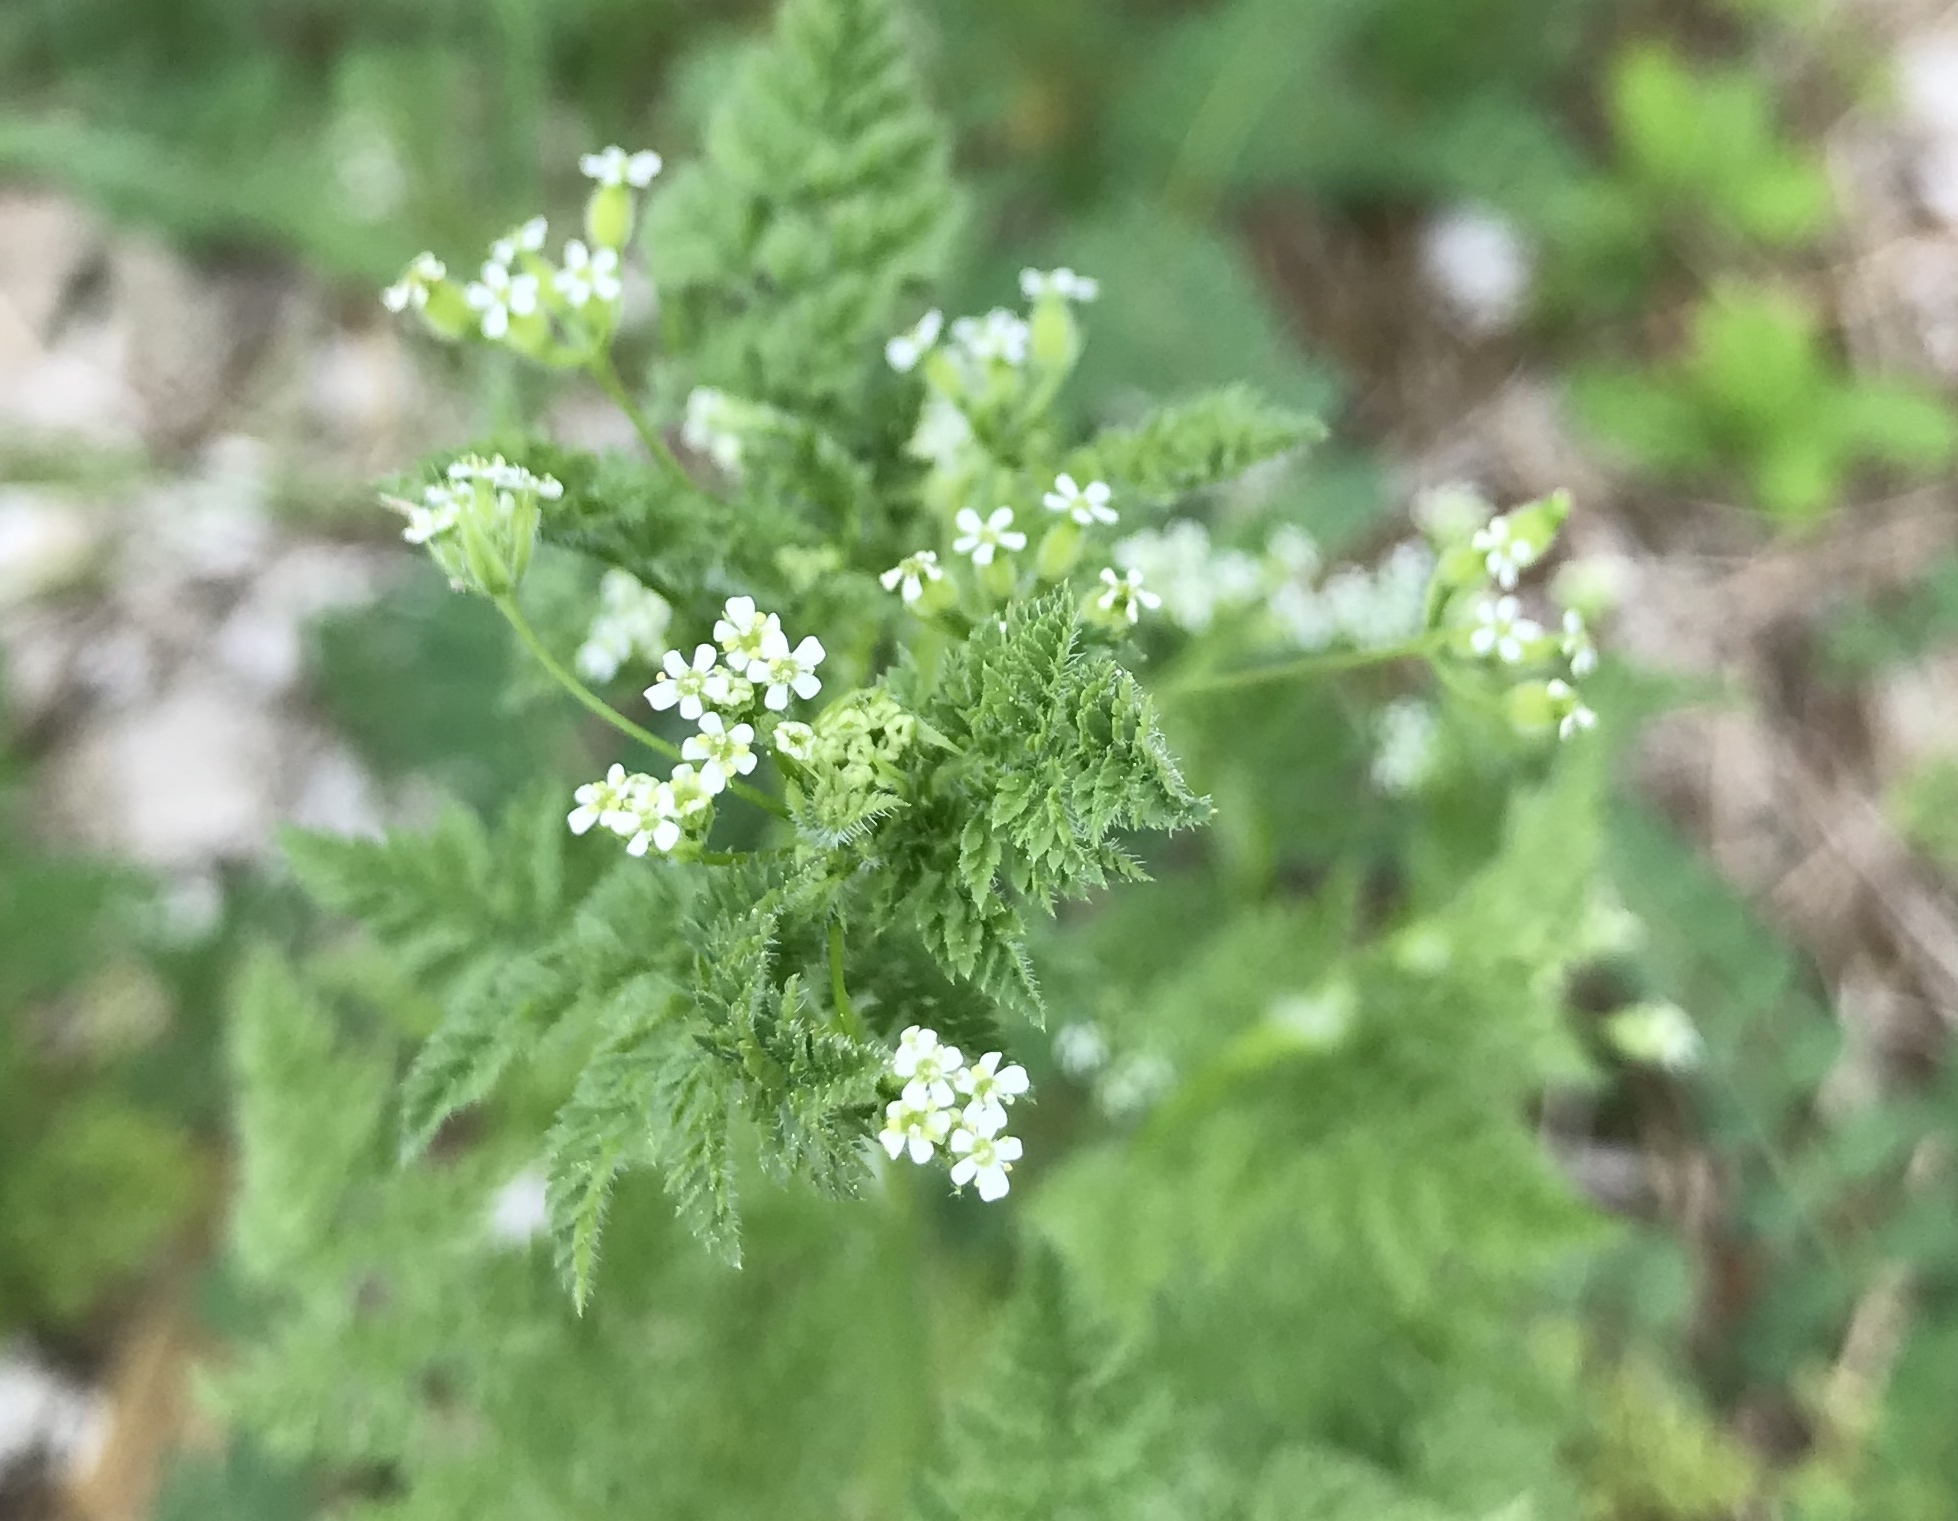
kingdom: Plantae
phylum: Tracheophyta
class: Magnoliopsida
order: Apiales
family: Apiaceae
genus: Anthriscus
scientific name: Anthriscus caucalis
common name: Bur chervil
